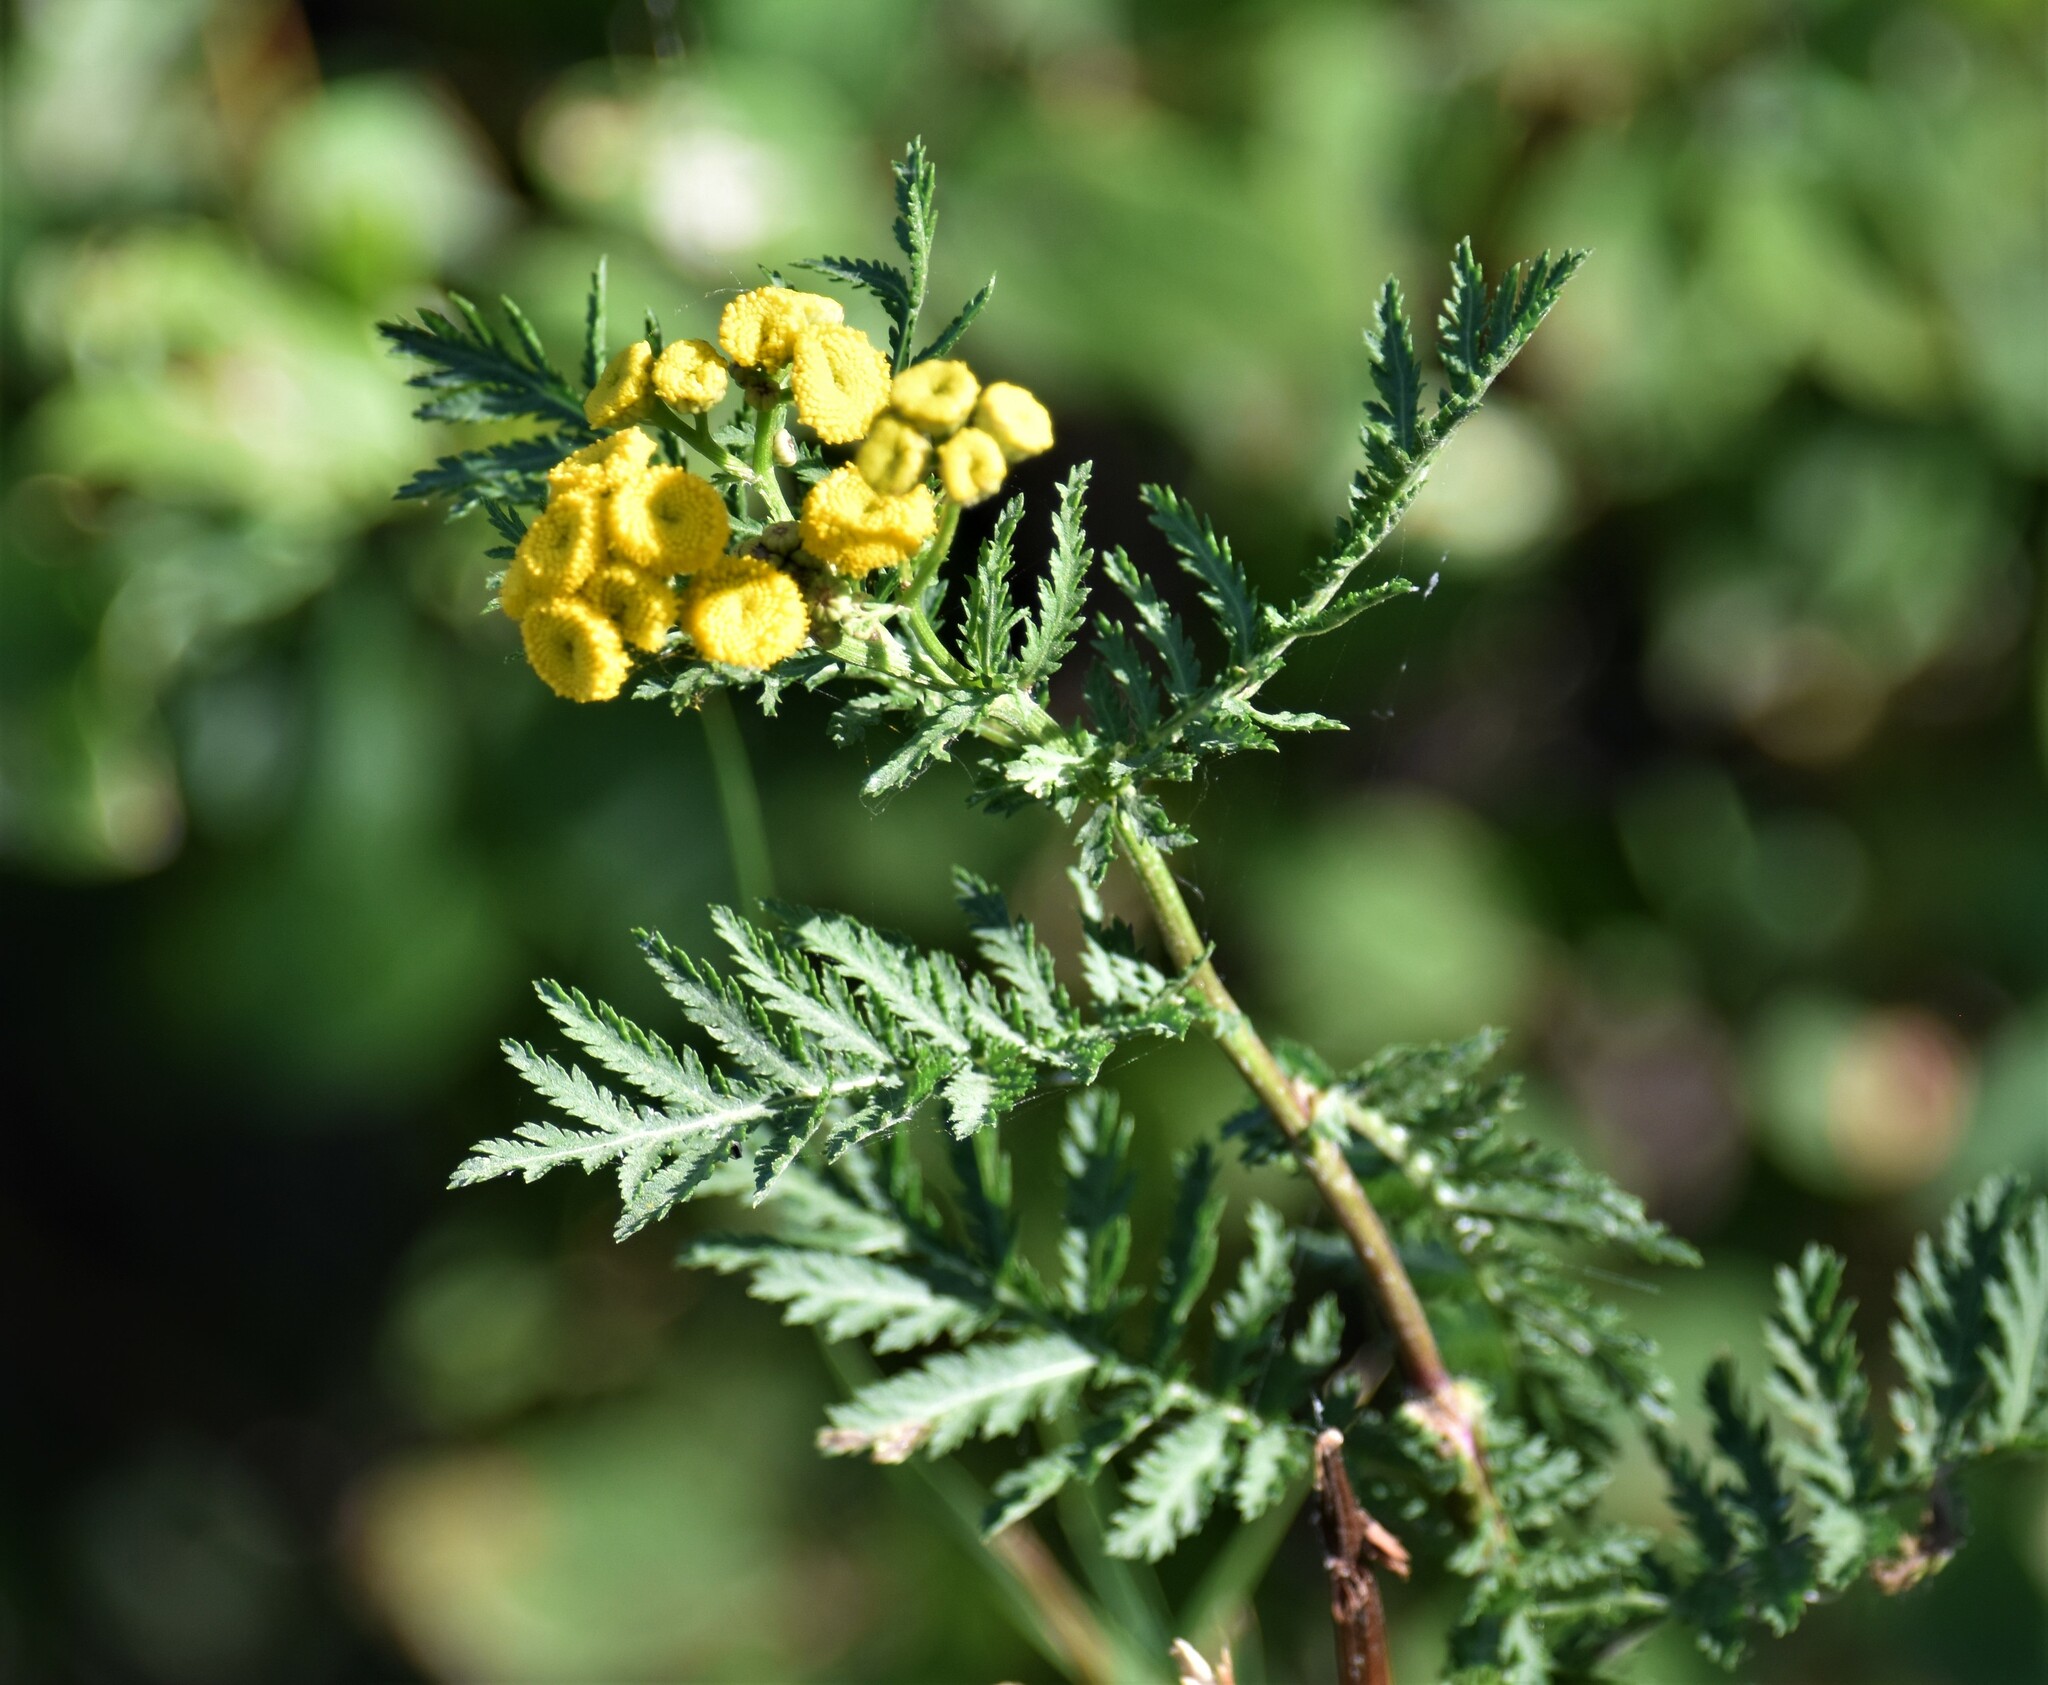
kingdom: Plantae
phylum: Tracheophyta
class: Magnoliopsida
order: Asterales
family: Asteraceae
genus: Tanacetum
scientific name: Tanacetum vulgare
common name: Common tansy
